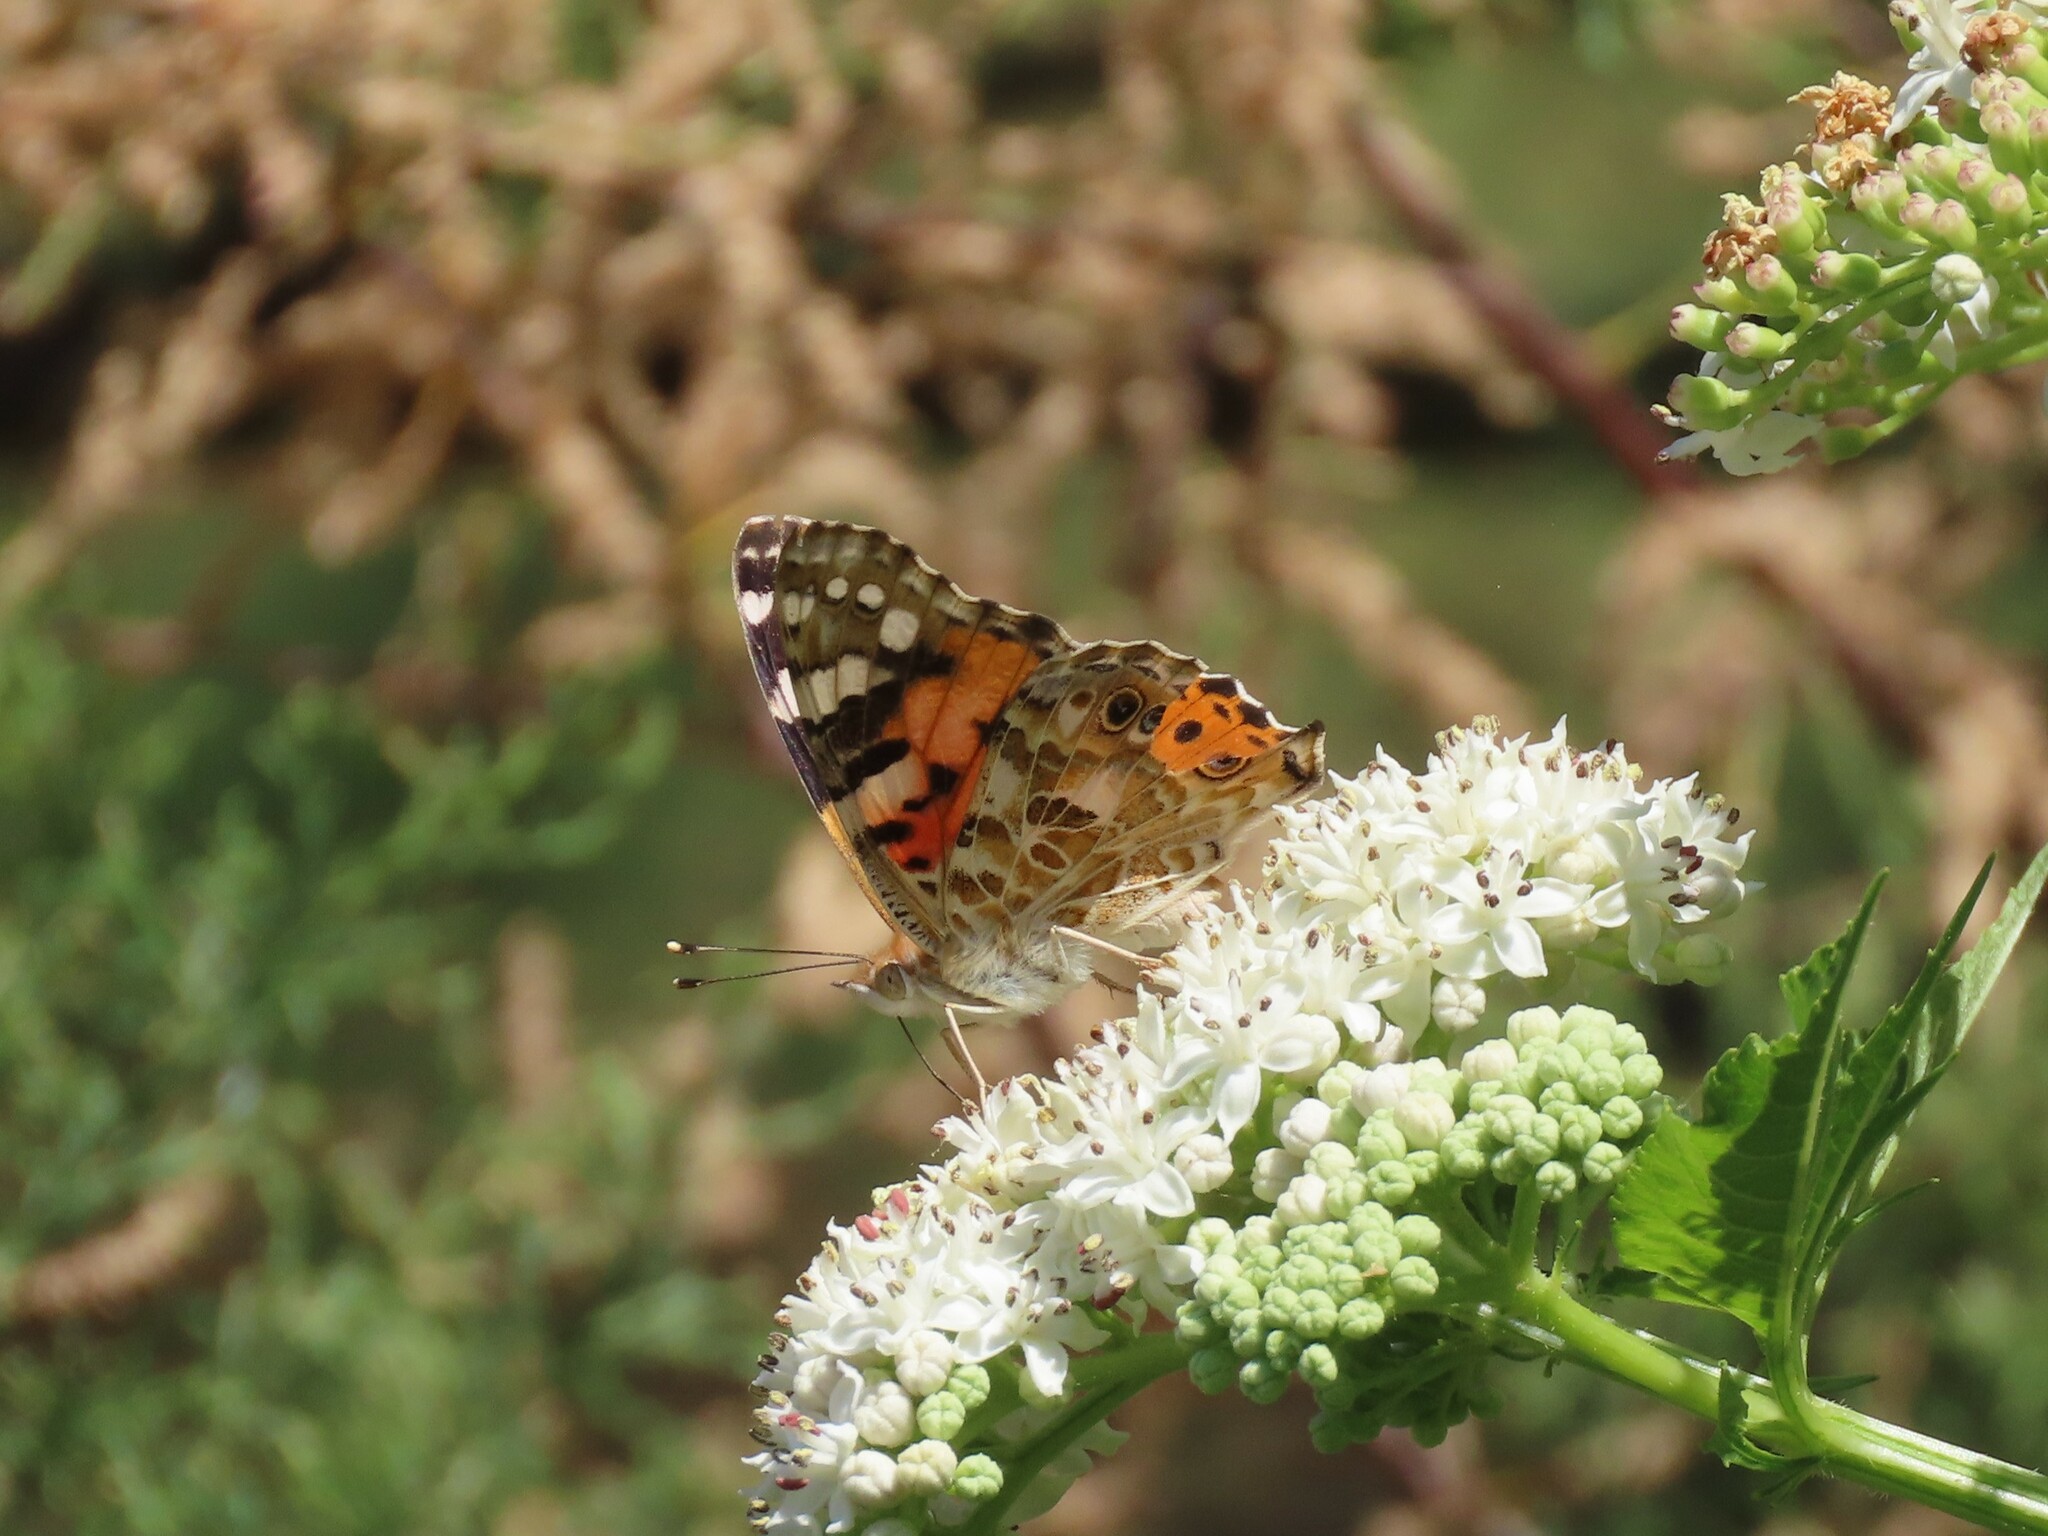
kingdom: Animalia
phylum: Arthropoda
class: Insecta
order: Lepidoptera
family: Nymphalidae
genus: Vanessa
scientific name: Vanessa cardui
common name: Painted lady
